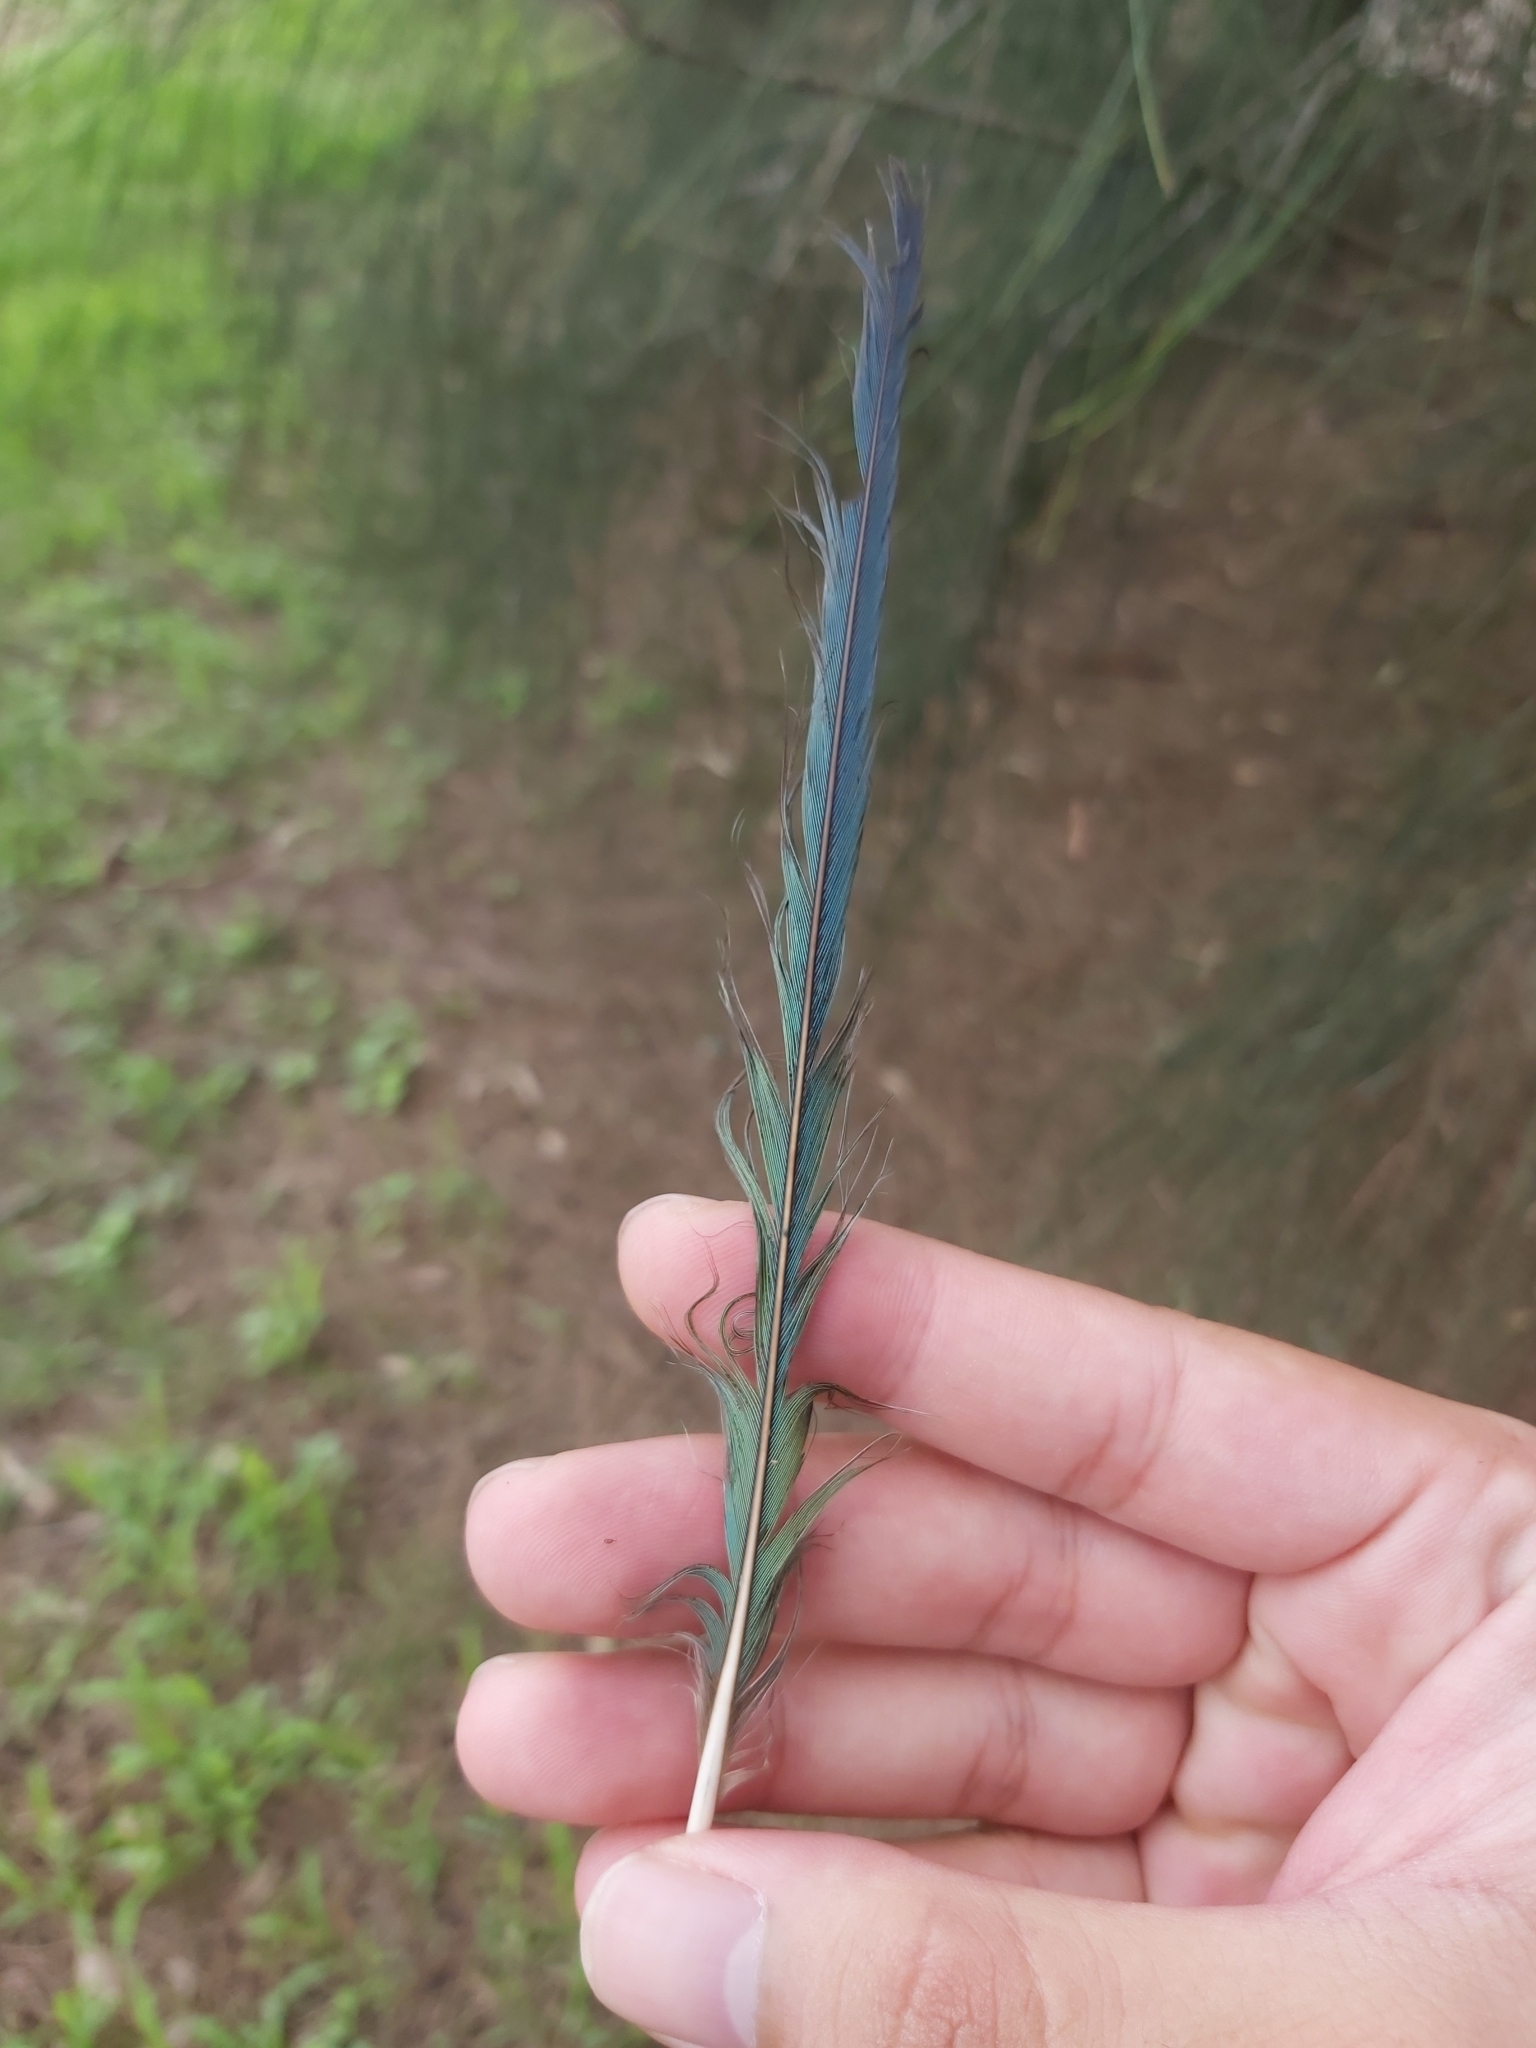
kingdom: Animalia
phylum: Chordata
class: Aves
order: Psittaciformes
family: Psittacidae
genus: Psephotus
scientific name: Psephotus haematonotus
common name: Red-rumped parrot
